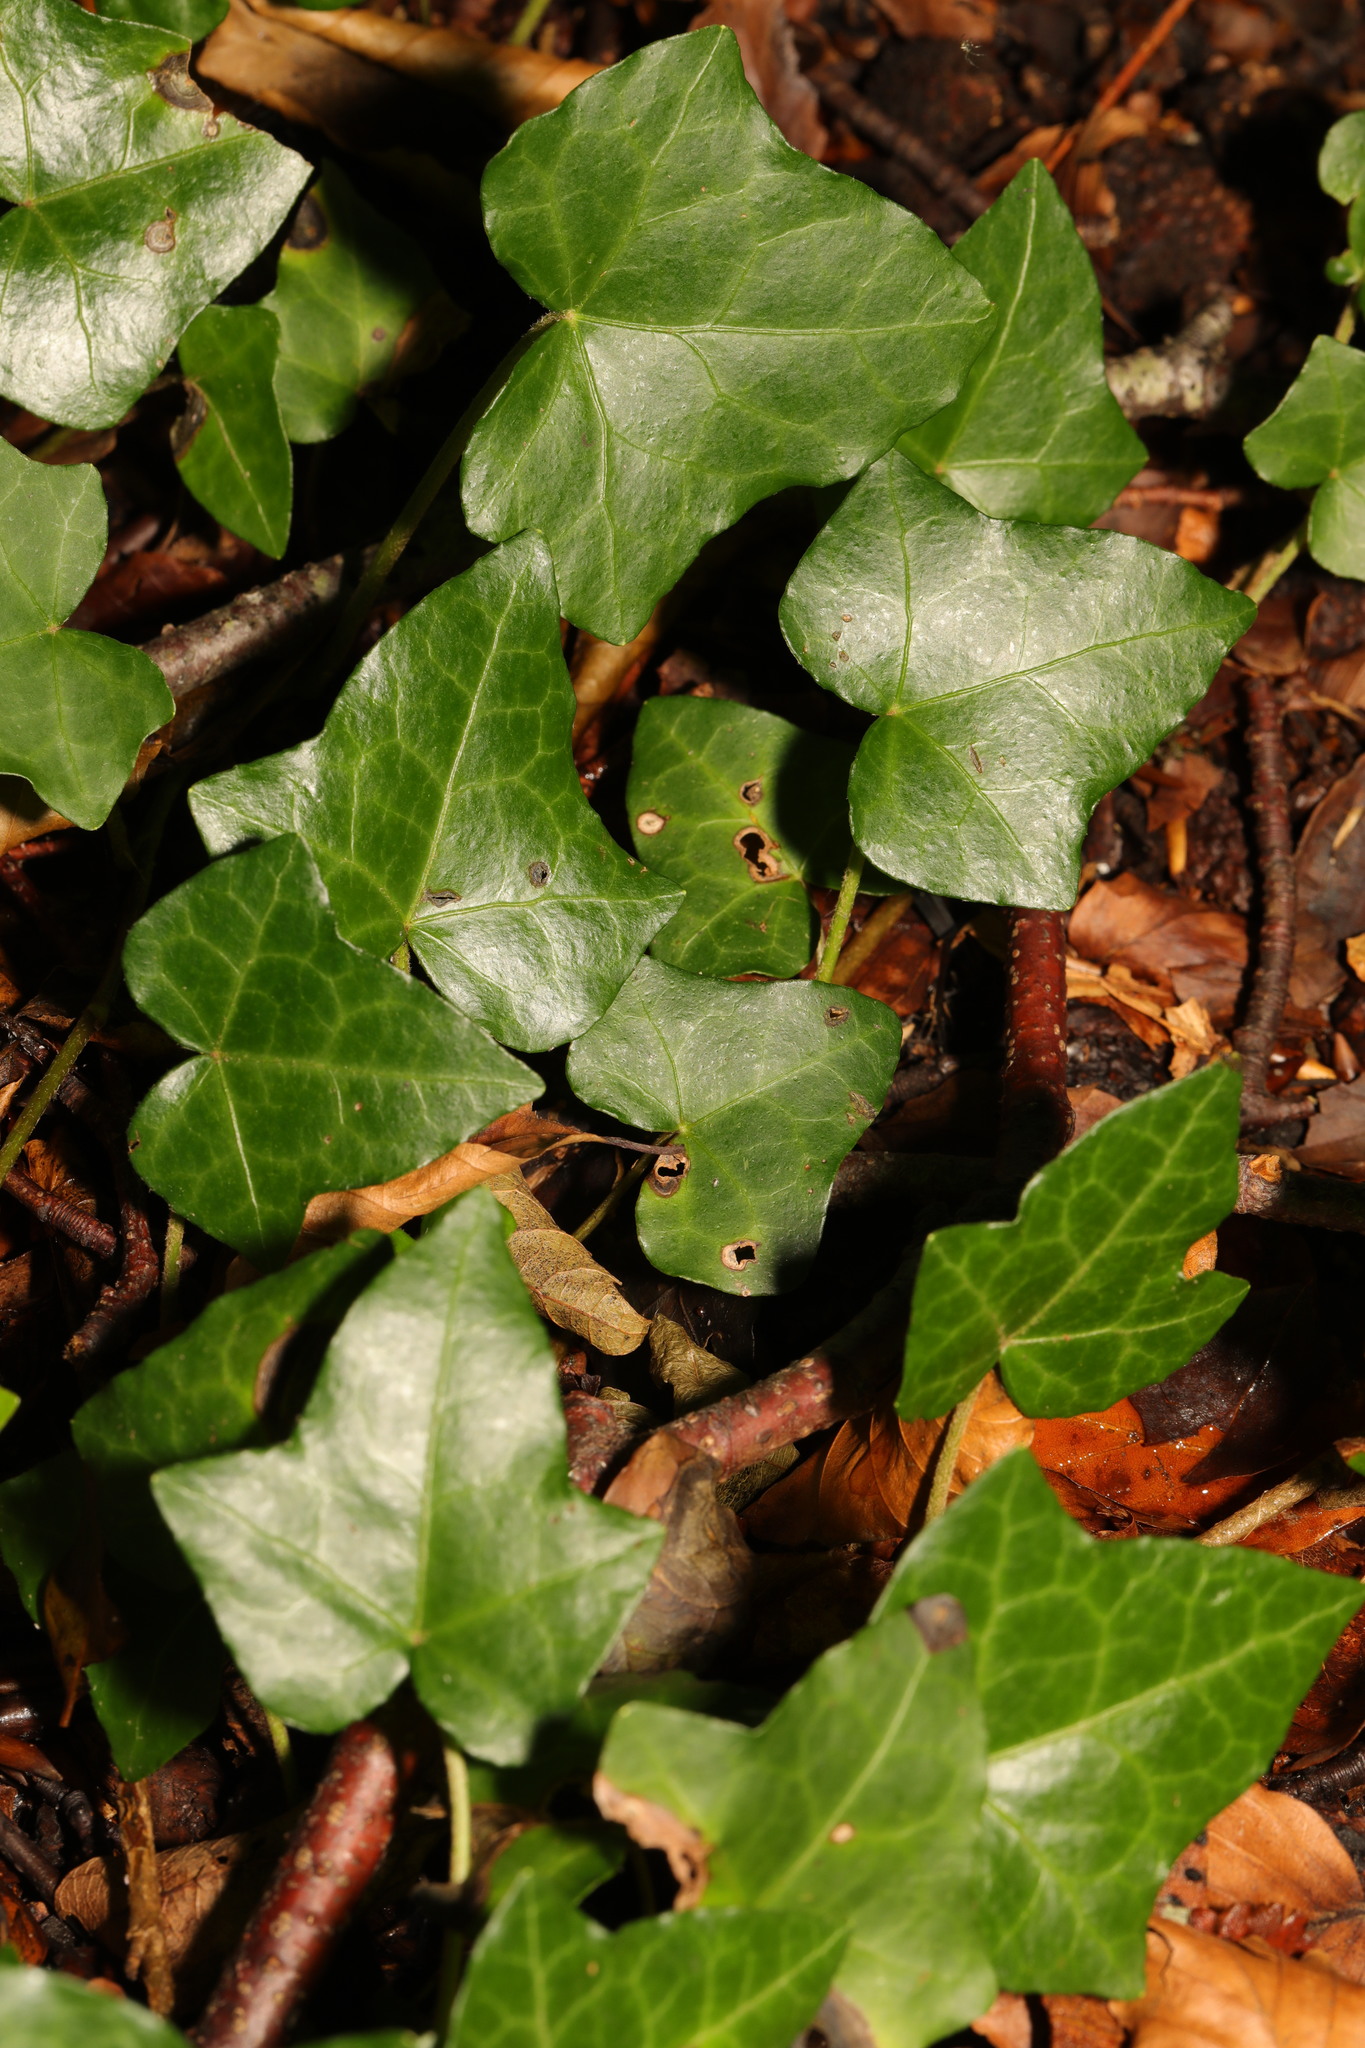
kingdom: Plantae
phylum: Tracheophyta
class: Magnoliopsida
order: Apiales
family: Araliaceae
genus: Hedera
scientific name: Hedera helix
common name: Ivy
